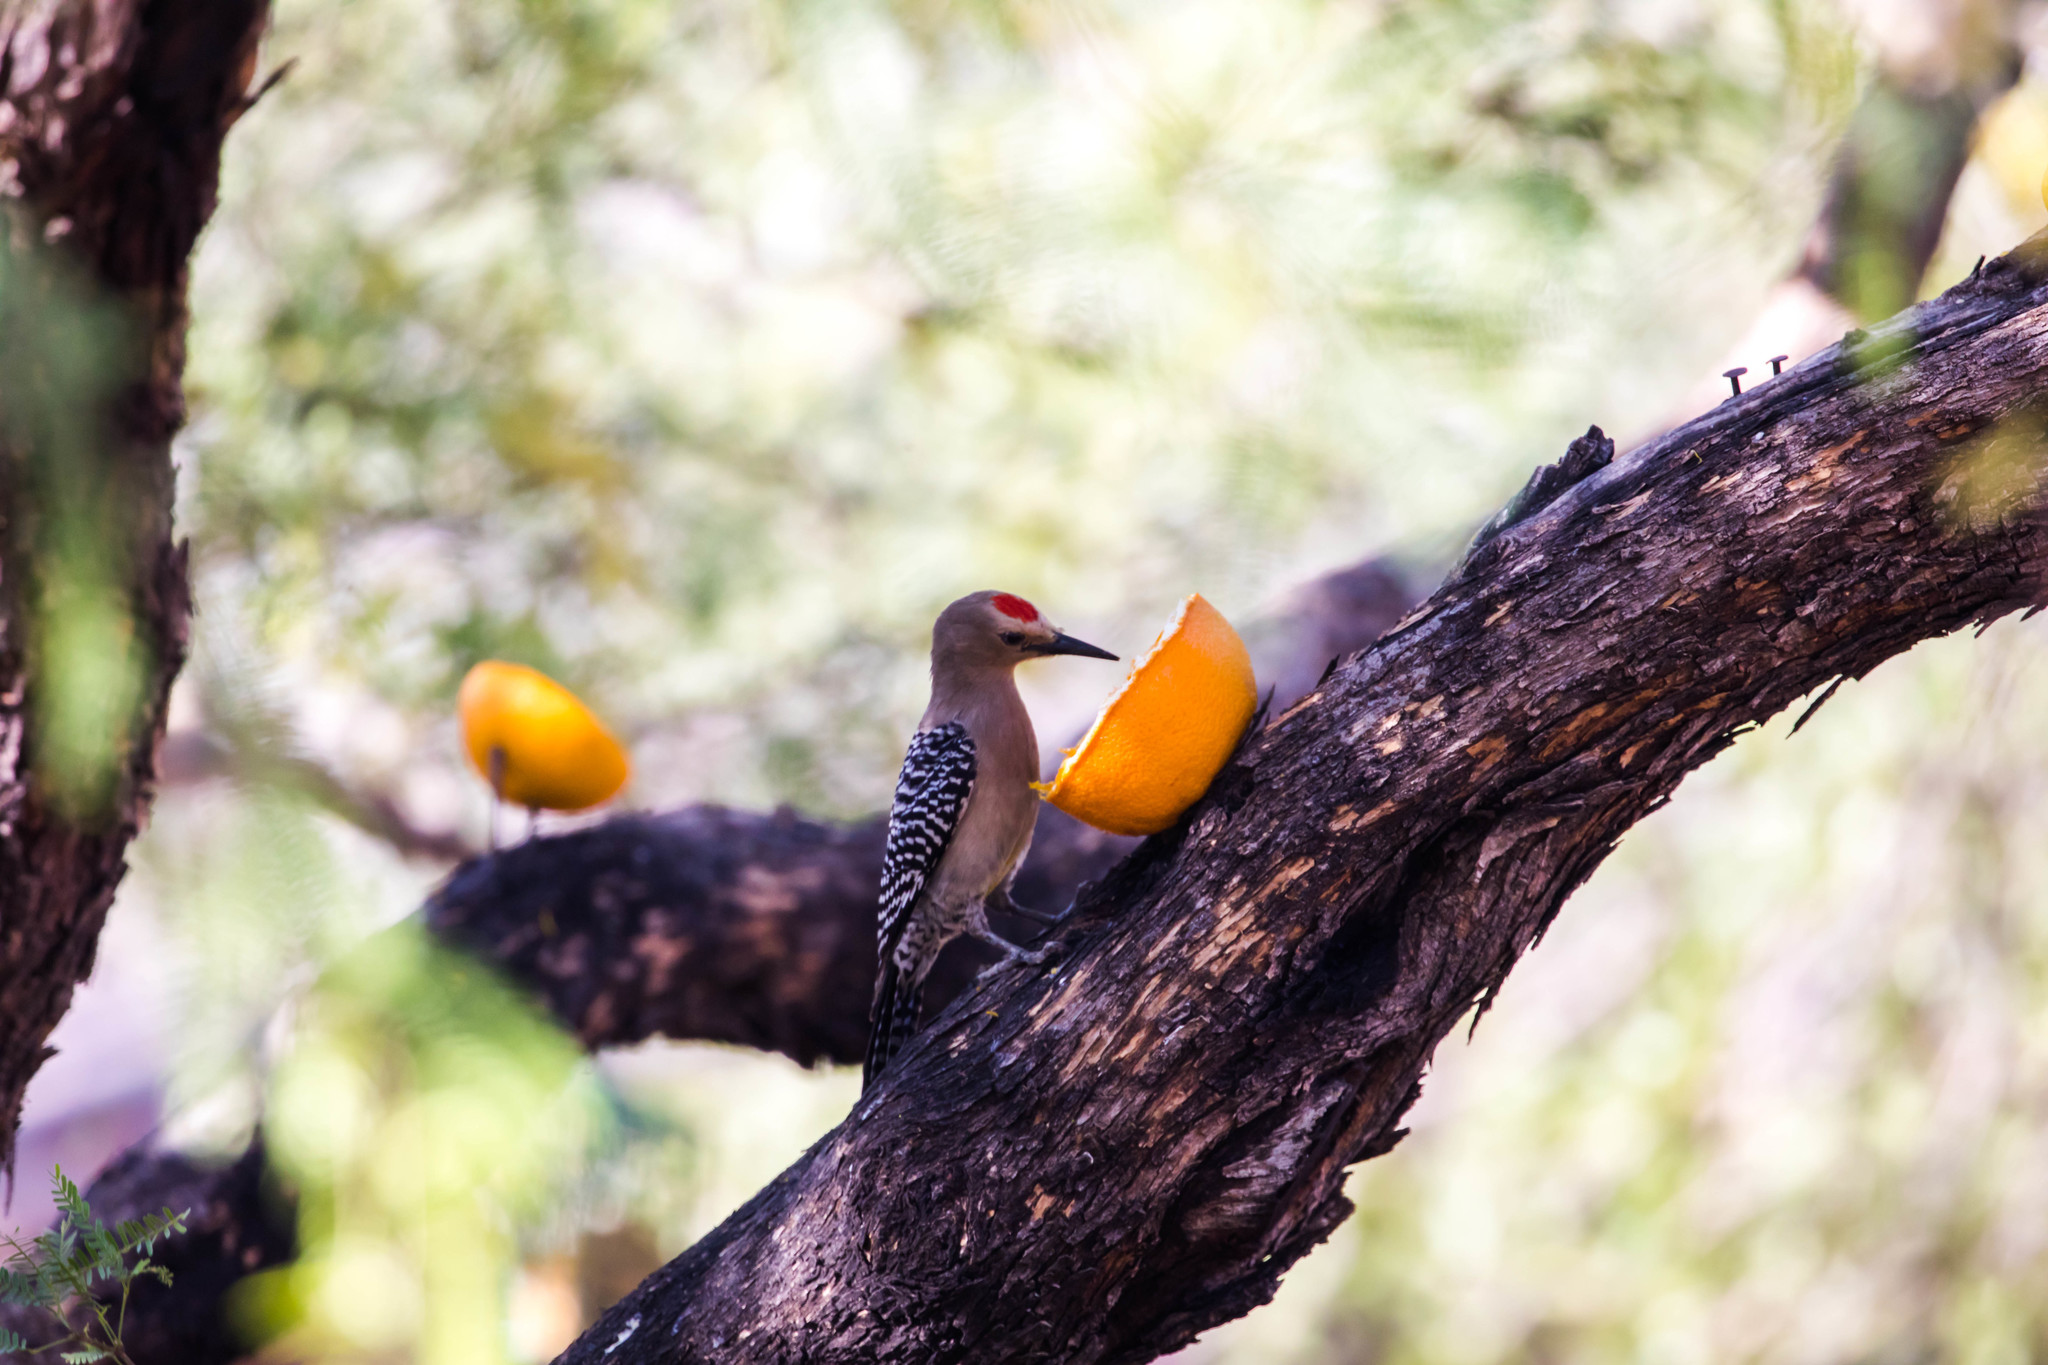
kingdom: Animalia
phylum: Chordata
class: Aves
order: Piciformes
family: Picidae
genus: Melanerpes
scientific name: Melanerpes uropygialis
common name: Gila woodpecker
